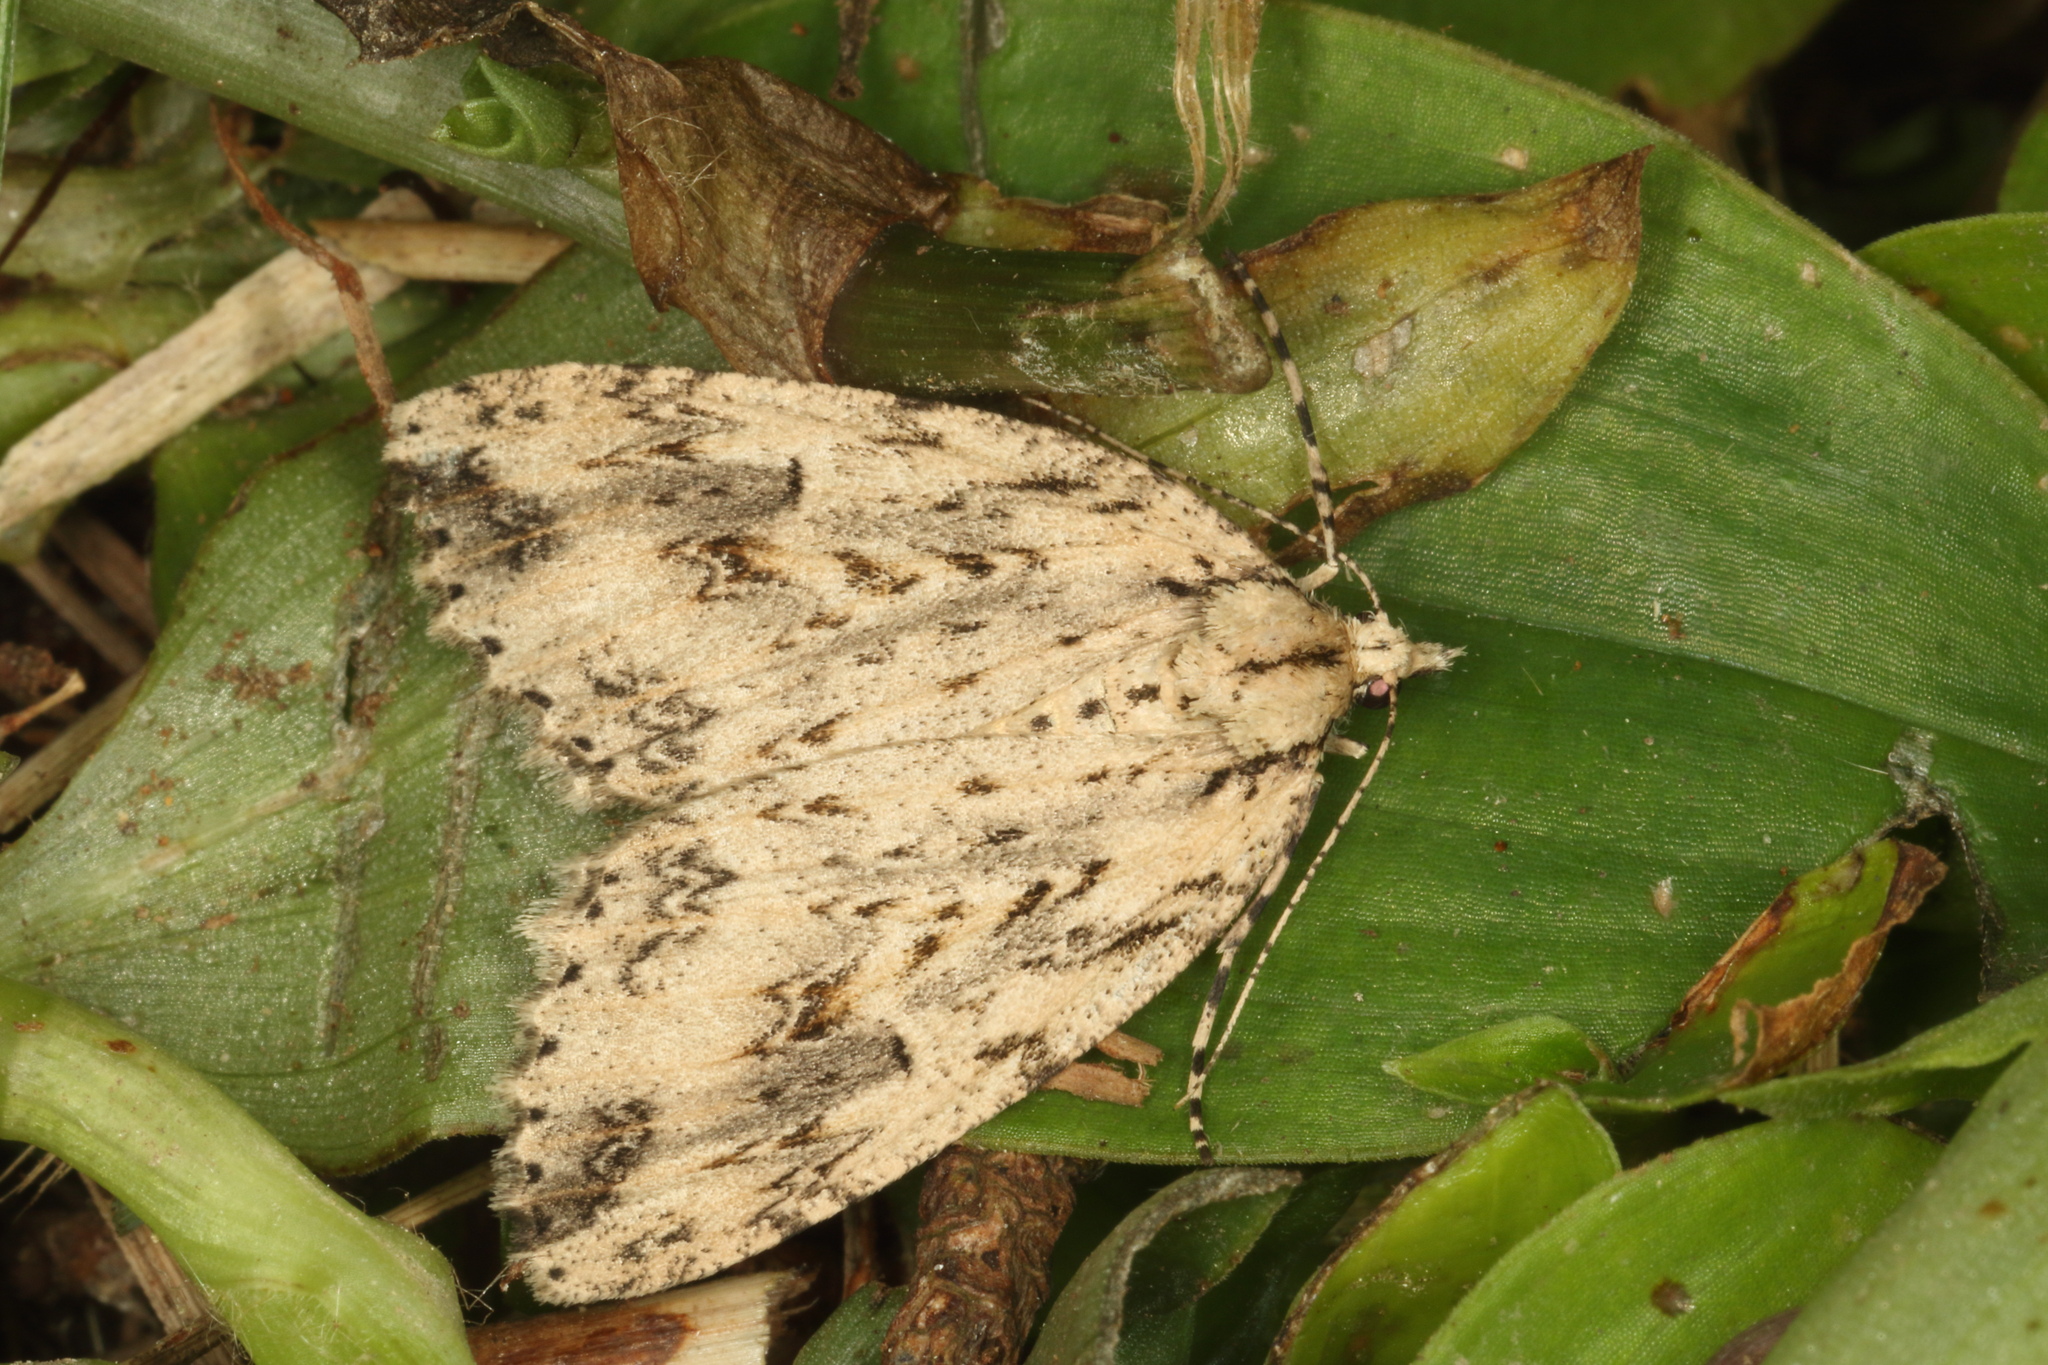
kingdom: Animalia
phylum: Arthropoda
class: Insecta
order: Lepidoptera
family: Geometridae
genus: Pseudocoremia
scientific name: Pseudocoremia rudisata
